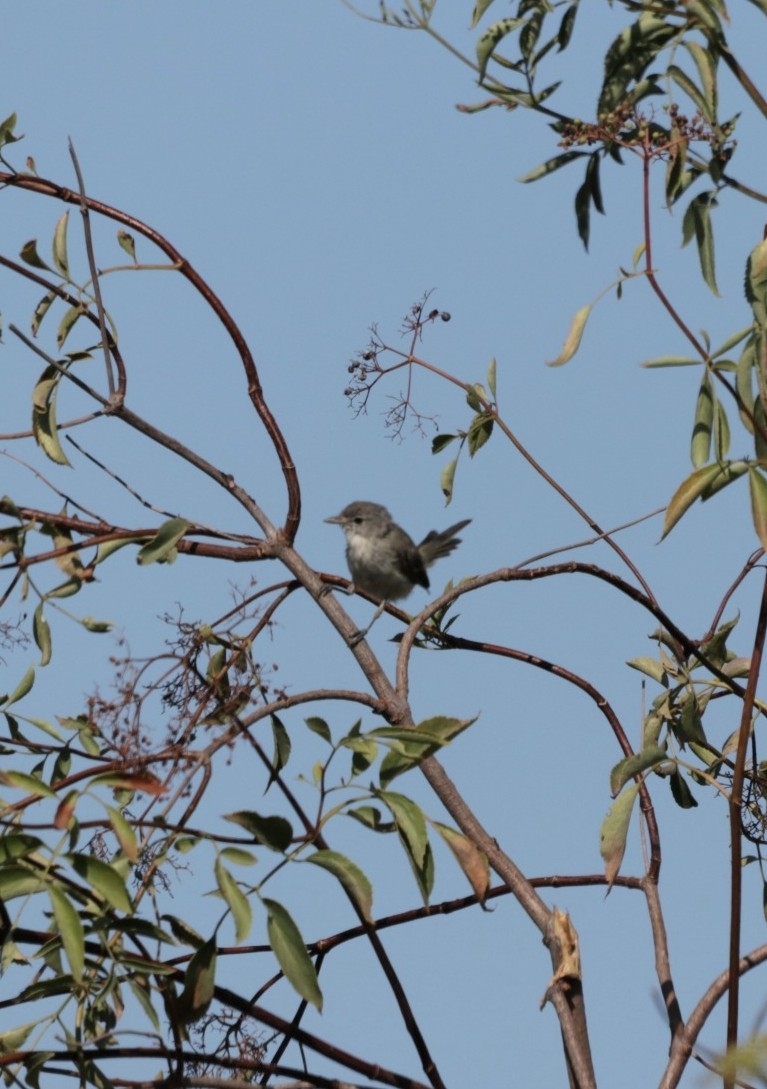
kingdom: Animalia
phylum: Chordata
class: Aves
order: Passeriformes
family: Vireonidae
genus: Vireo
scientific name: Vireo bellii
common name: Bell's vireo
